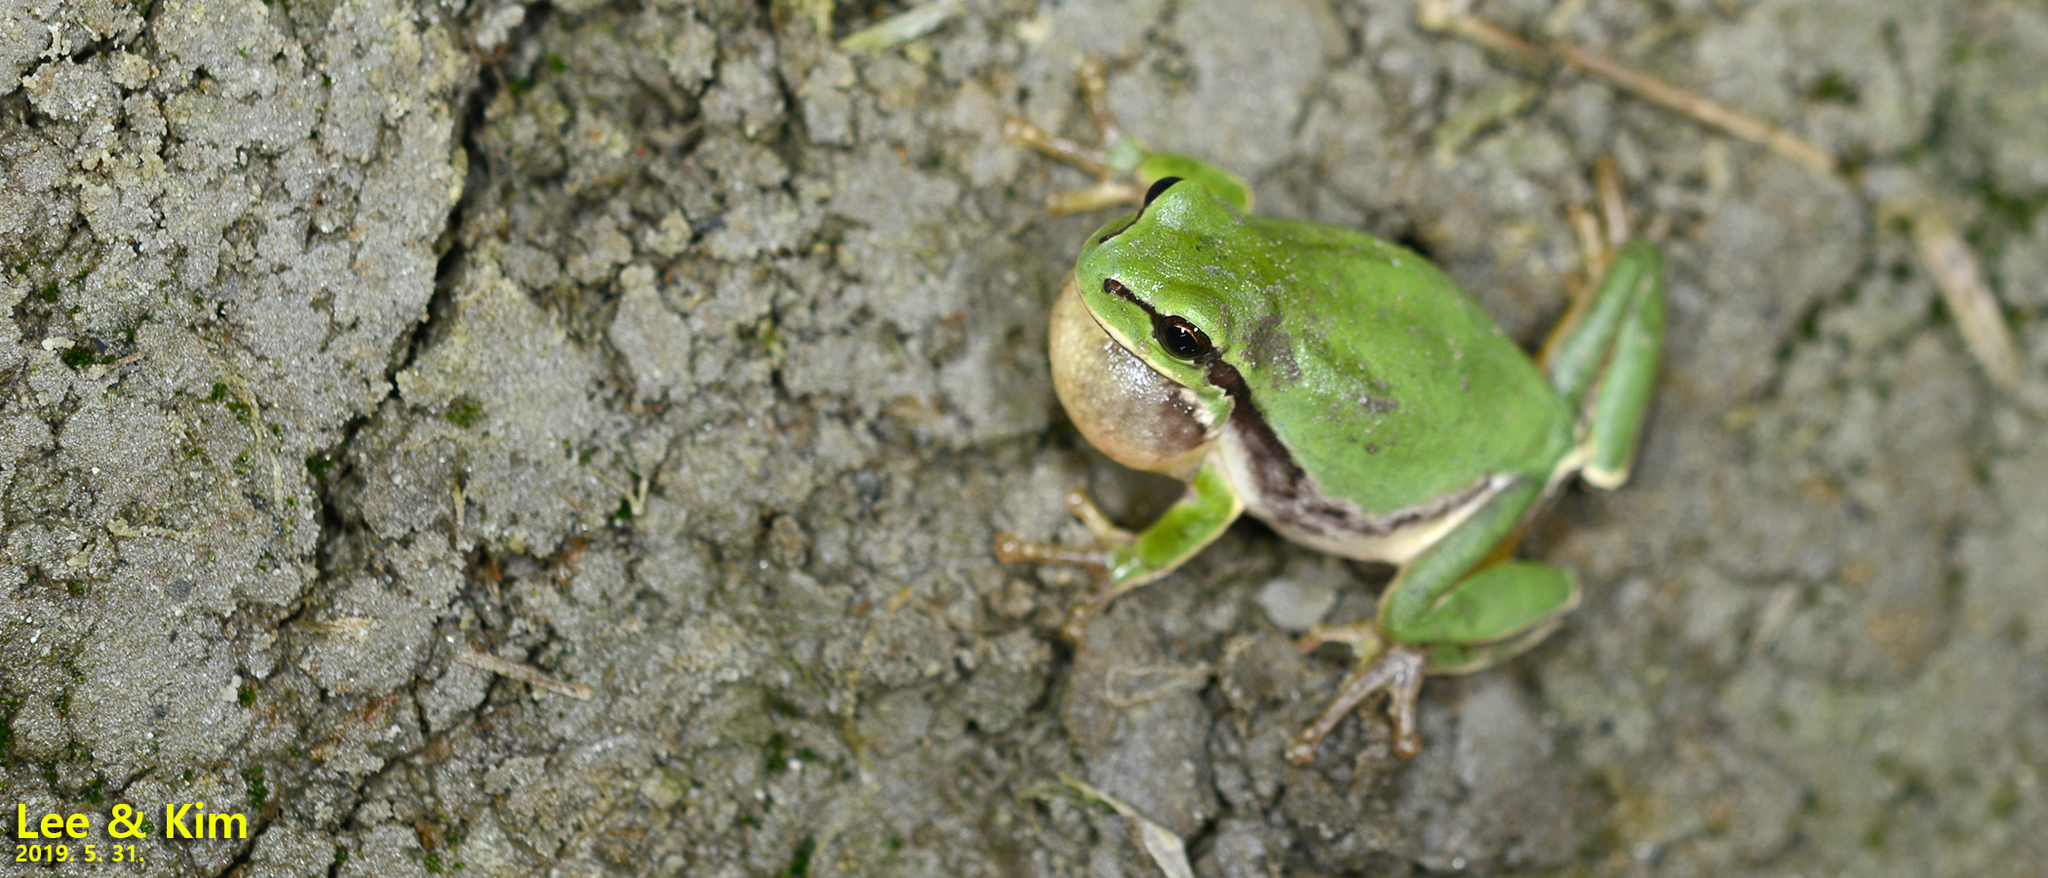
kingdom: Animalia
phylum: Chordata
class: Amphibia
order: Anura
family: Hylidae
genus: Dryophytes
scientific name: Dryophytes immaculatus
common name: North china treefrog
